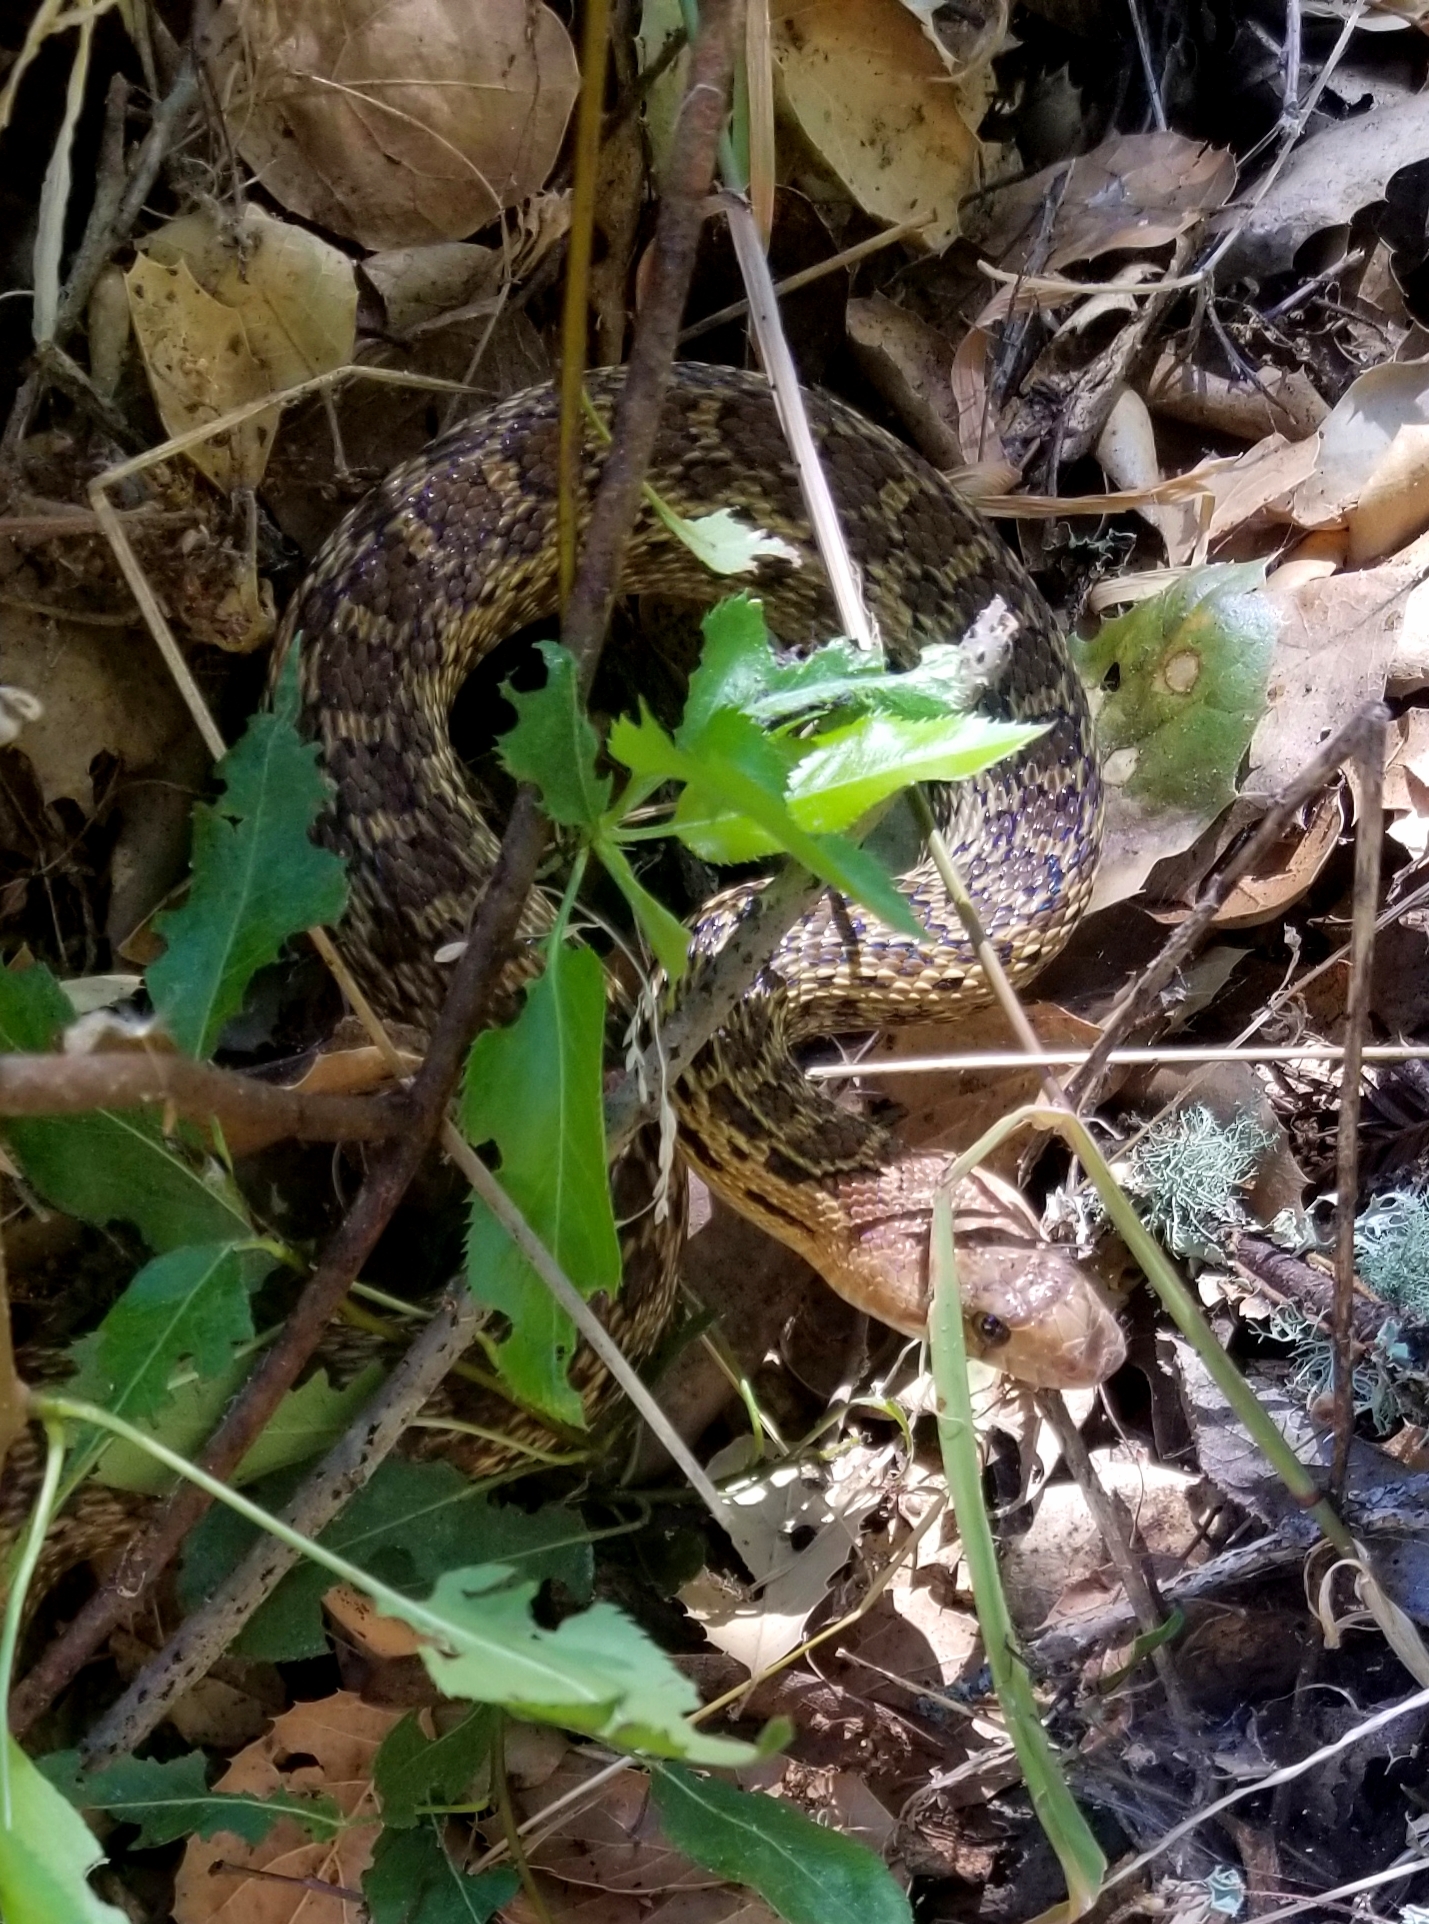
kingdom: Animalia
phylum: Chordata
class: Squamata
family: Colubridae
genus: Pituophis
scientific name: Pituophis catenifer
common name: Gopher snake
